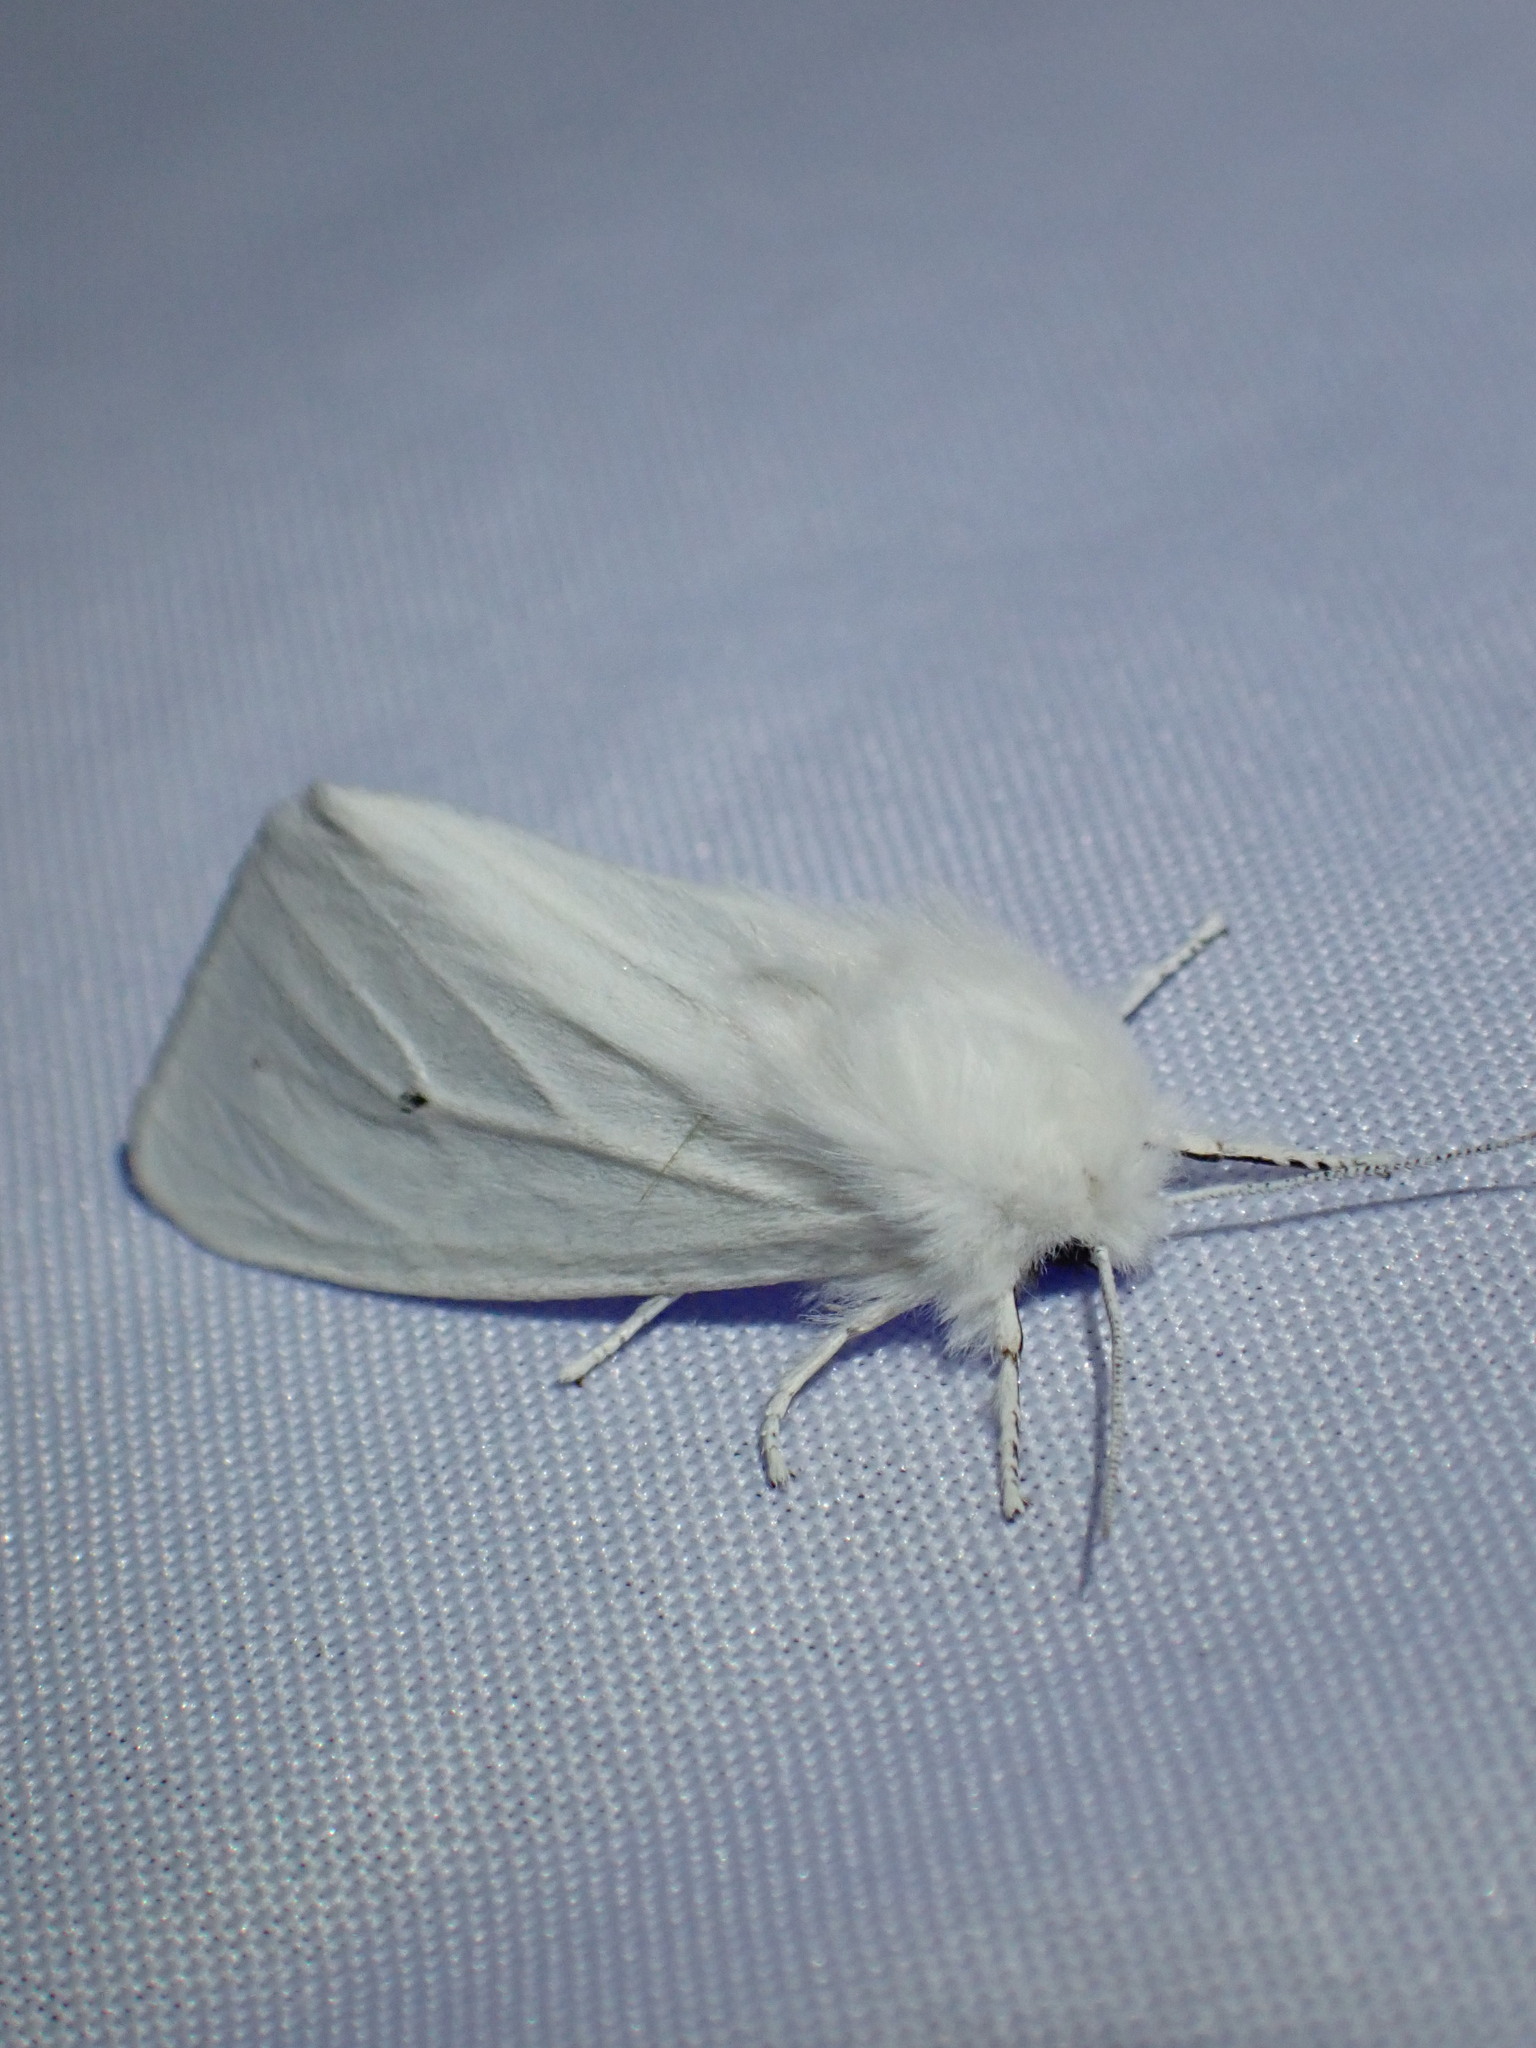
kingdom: Animalia
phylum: Arthropoda
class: Insecta
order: Lepidoptera
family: Erebidae
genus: Spilosoma
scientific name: Spilosoma virginica
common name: Virginia tiger moth
